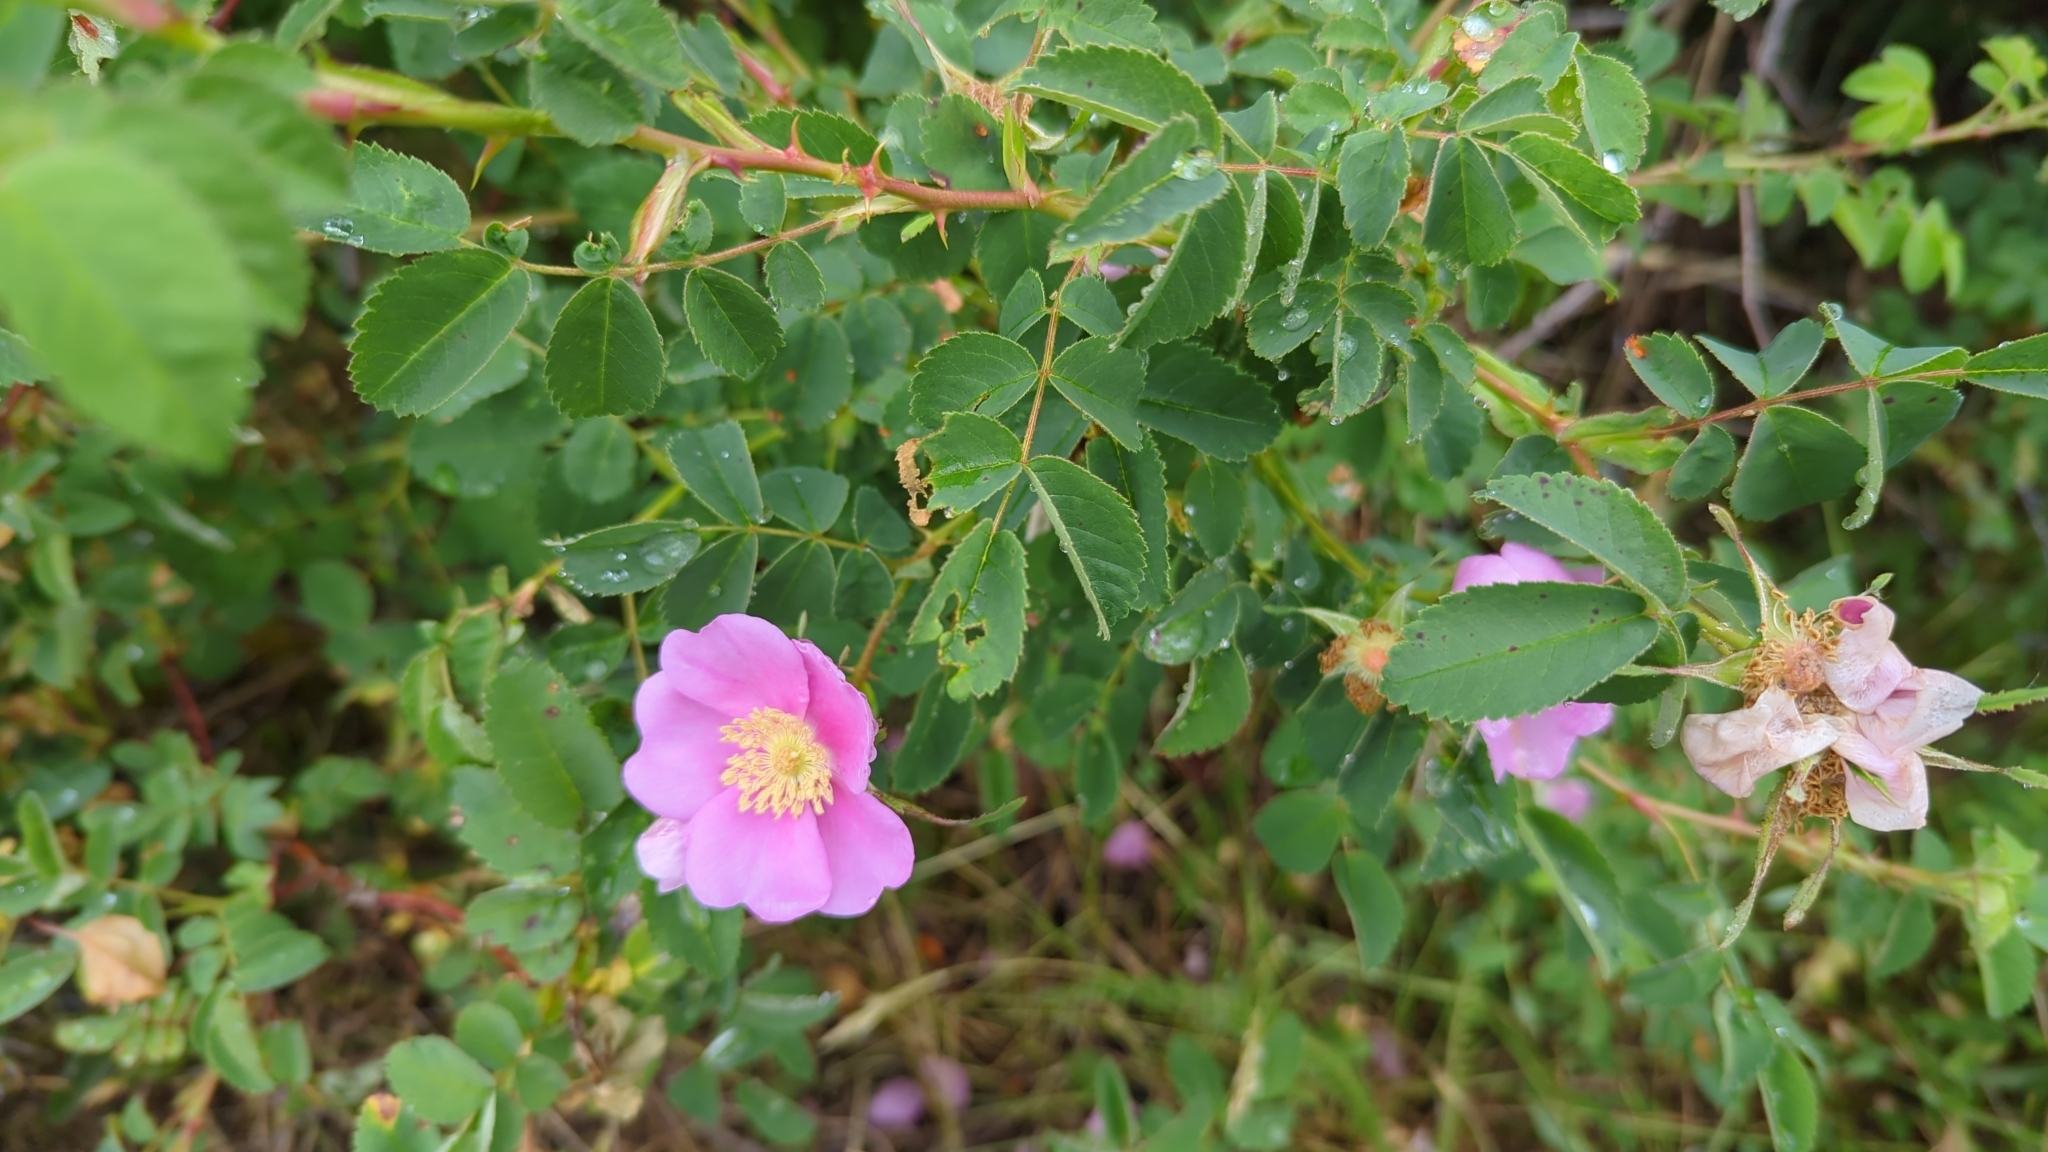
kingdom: Plantae
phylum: Tracheophyta
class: Magnoliopsida
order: Rosales
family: Rosaceae
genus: Rosa
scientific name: Rosa nutkana
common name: Nootka rose
